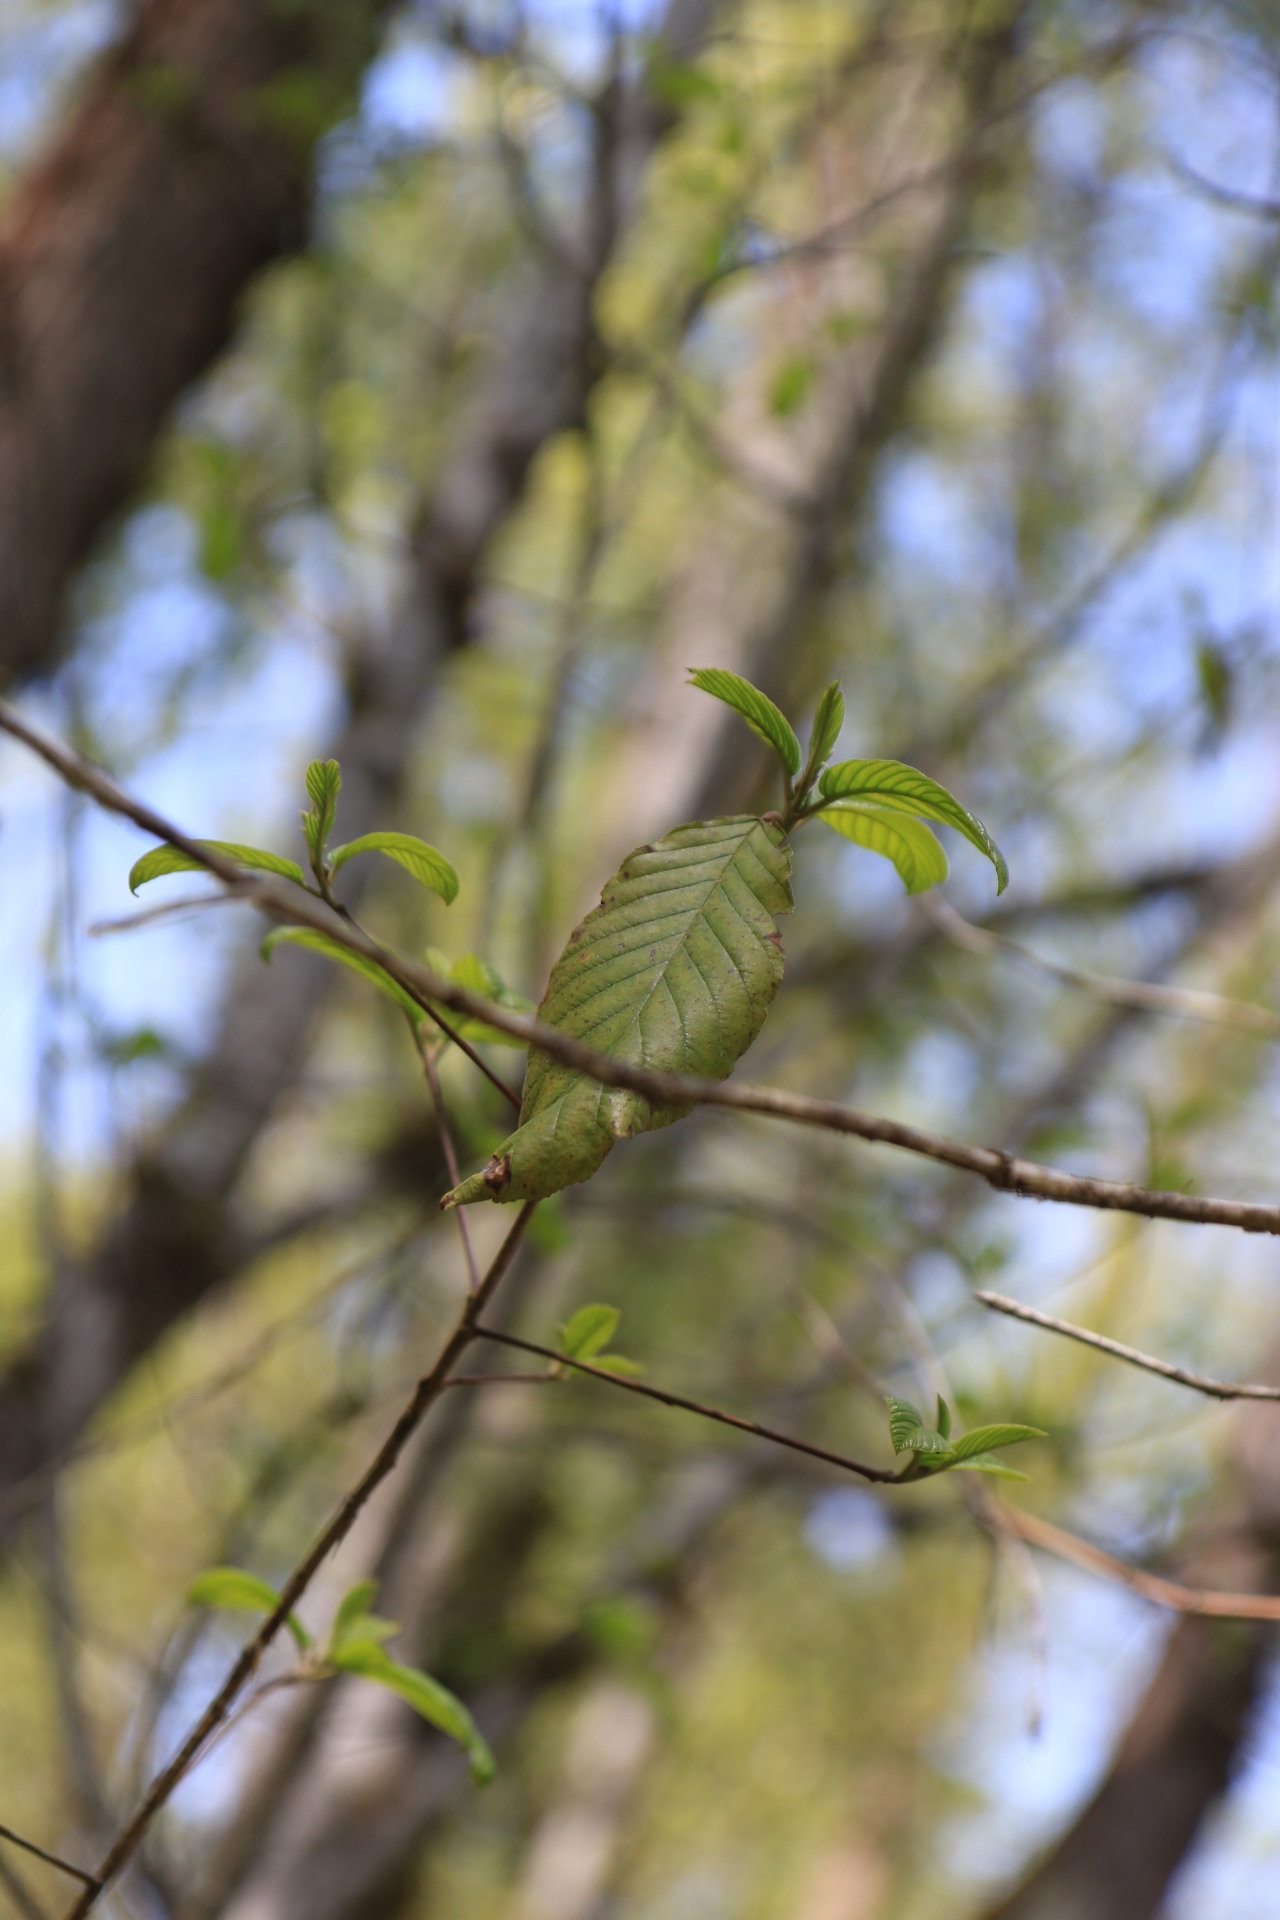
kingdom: Plantae
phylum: Tracheophyta
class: Magnoliopsida
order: Rosales
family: Rhamnaceae
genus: Frangula
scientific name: Frangula purshiana
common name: Cascara buckthorn
